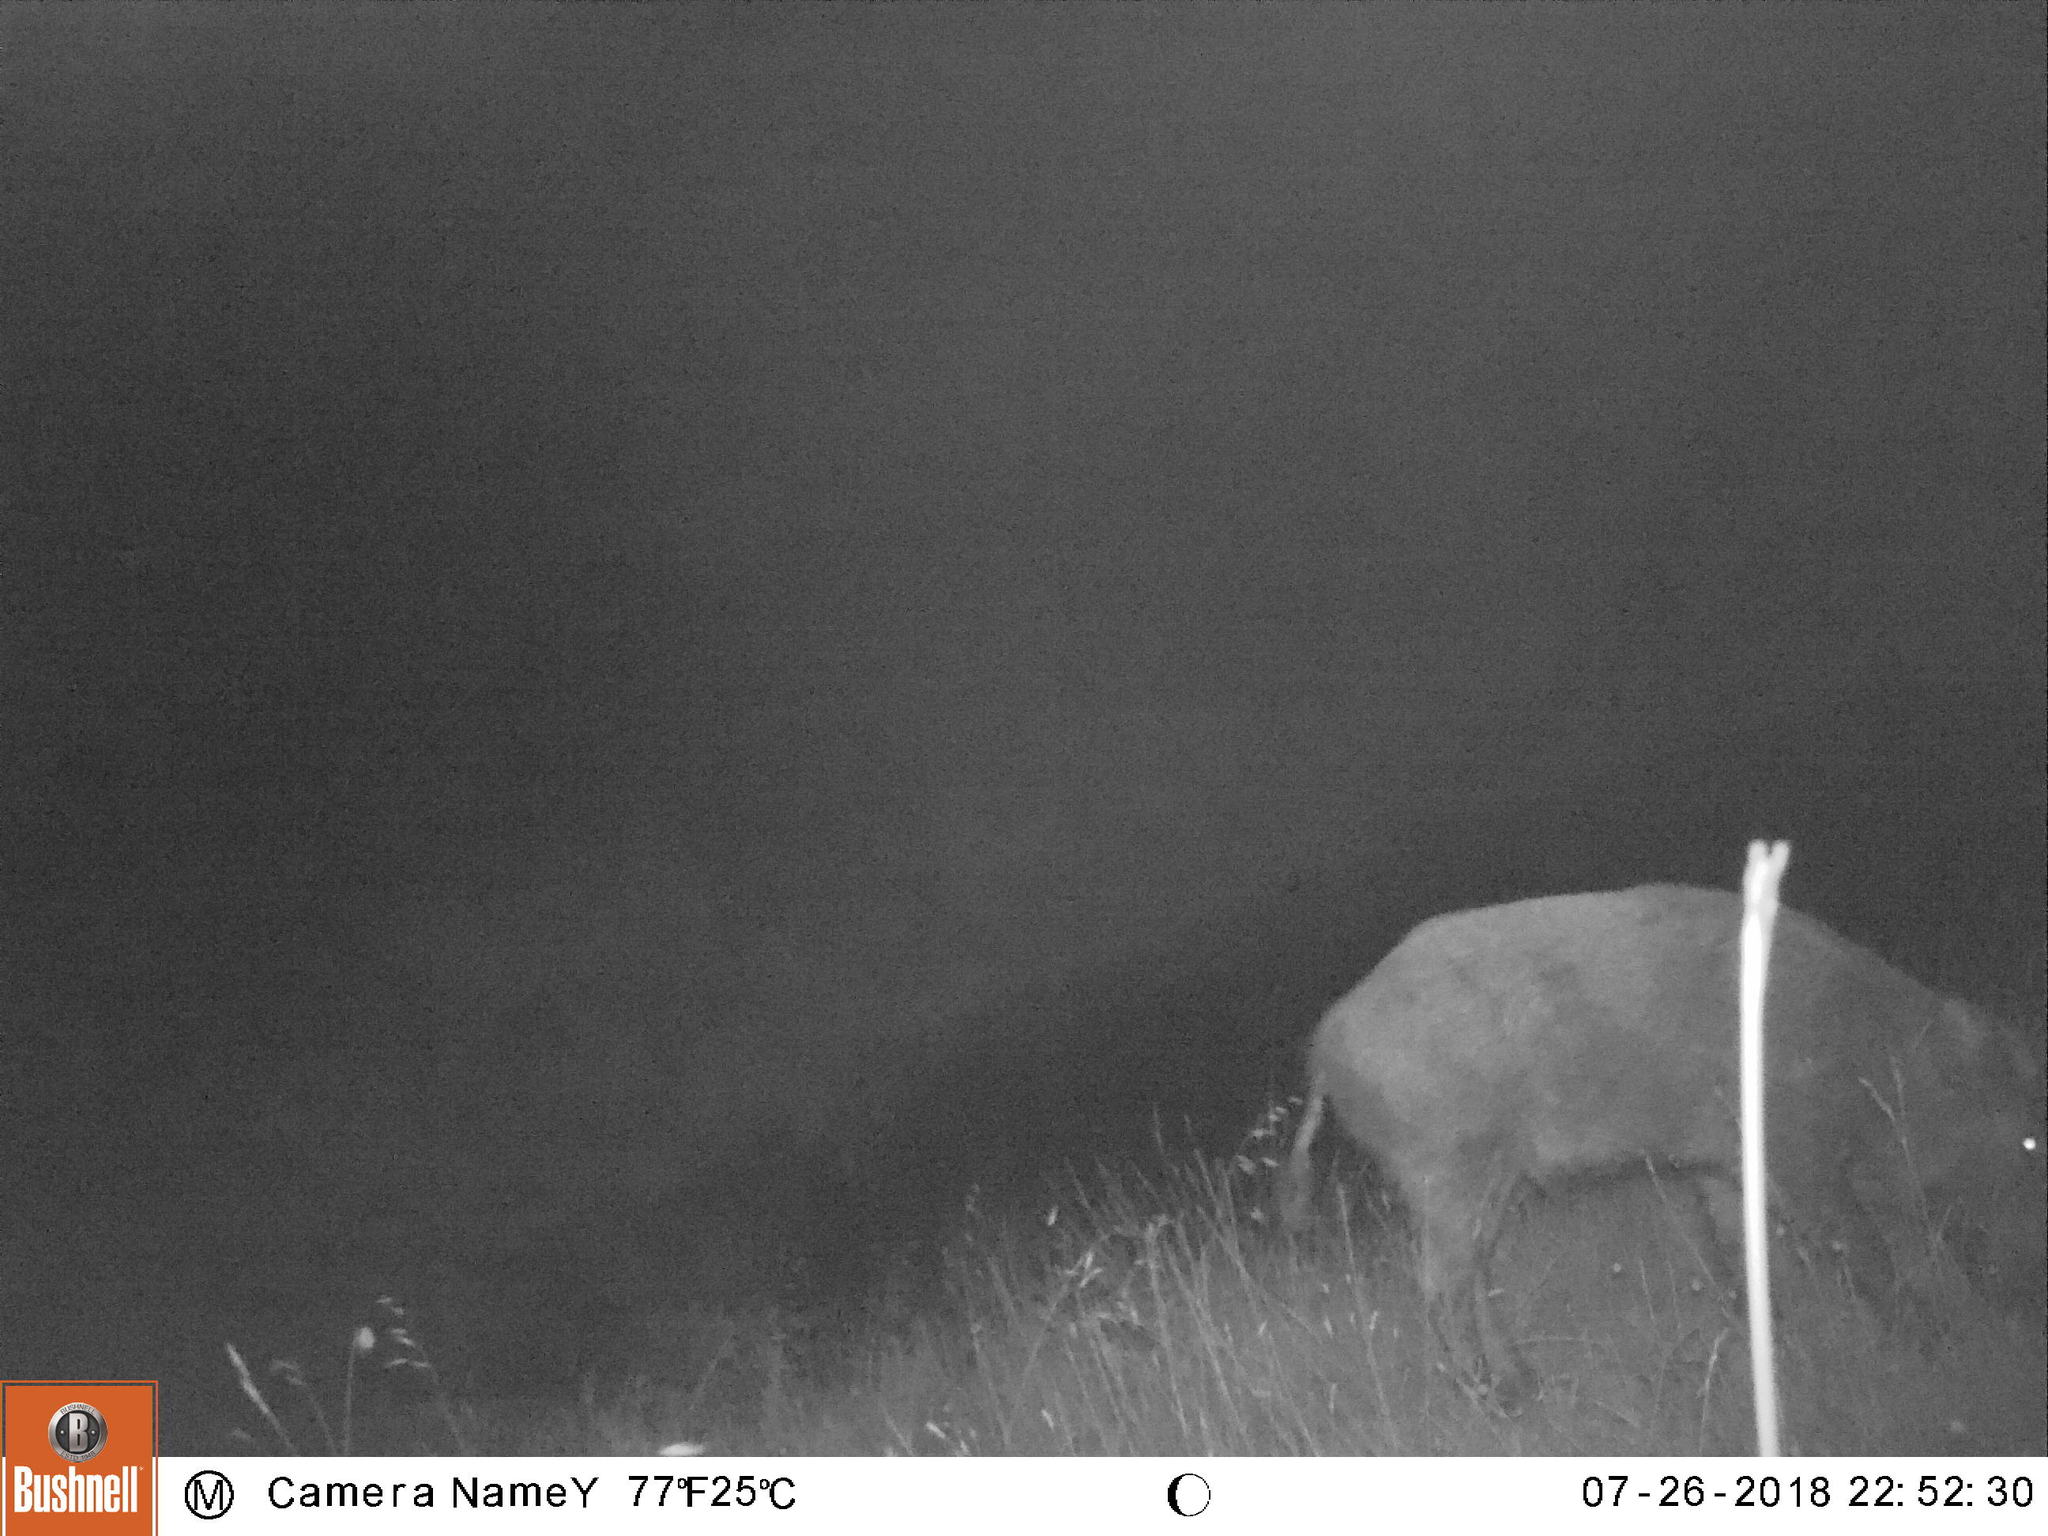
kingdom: Animalia
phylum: Chordata
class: Mammalia
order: Artiodactyla
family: Suidae
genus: Sus
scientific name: Sus scrofa
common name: Wild boar
